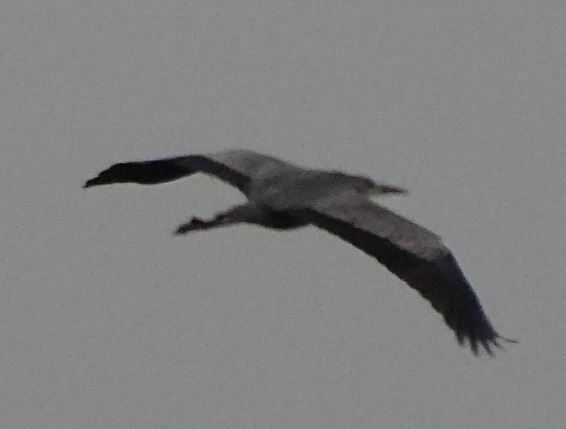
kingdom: Animalia
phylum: Chordata
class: Aves
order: Pelecaniformes
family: Ardeidae
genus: Ardea
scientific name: Ardea cinerea
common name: Grey heron
